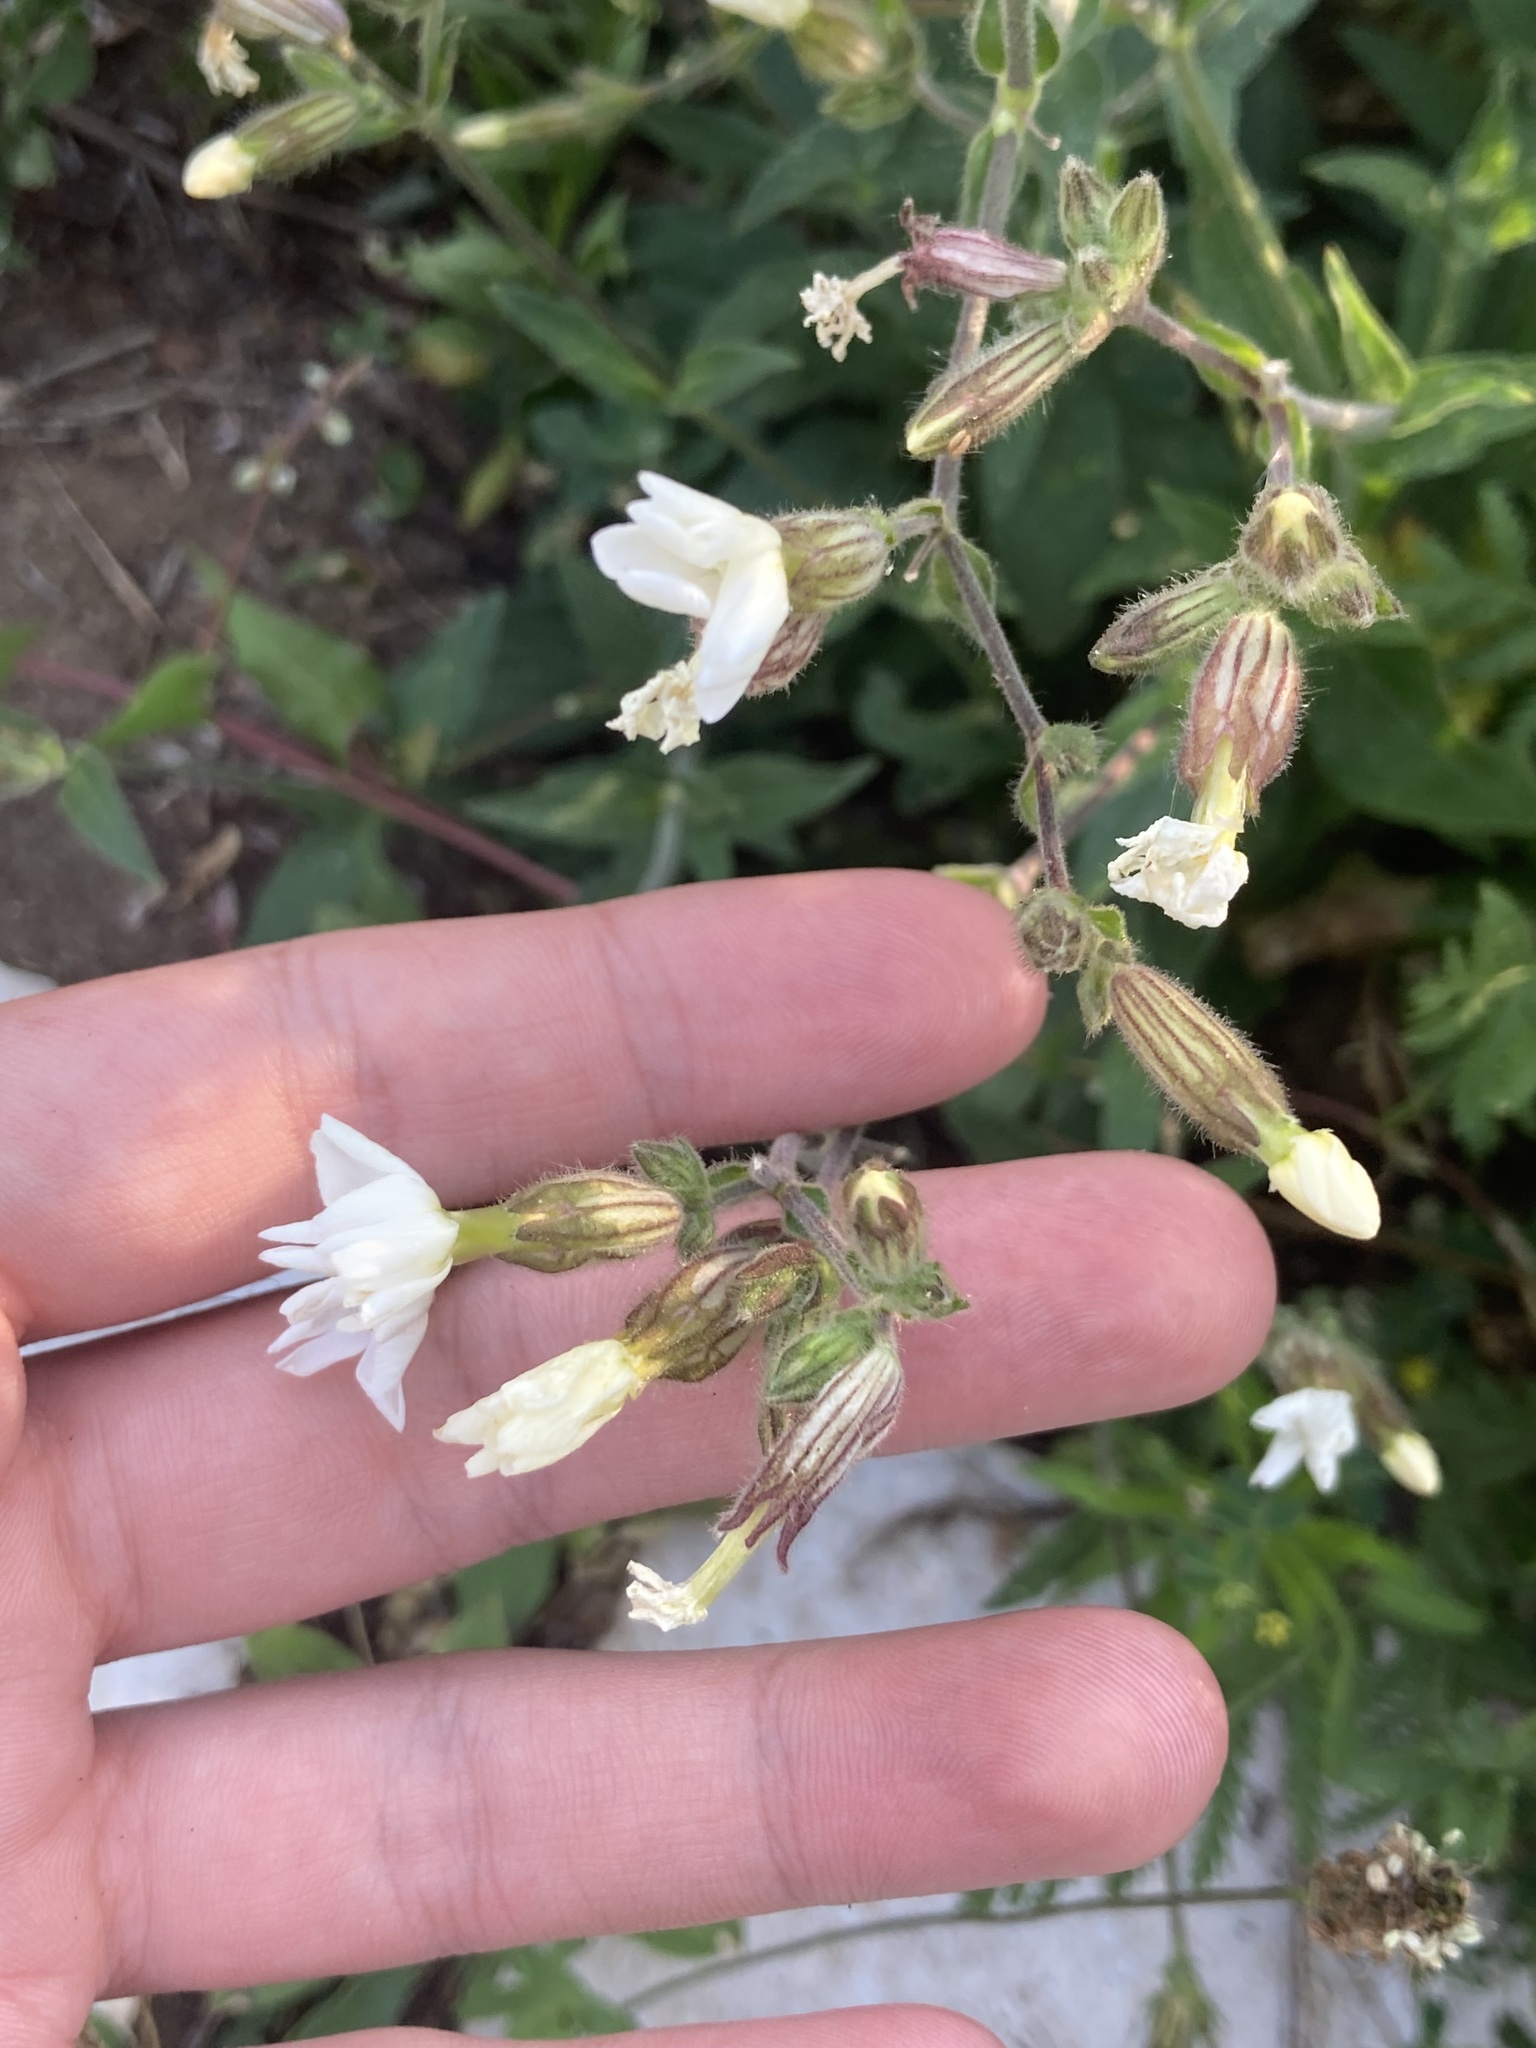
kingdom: Plantae
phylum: Tracheophyta
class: Magnoliopsida
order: Caryophyllales
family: Caryophyllaceae
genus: Silene
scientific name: Silene latifolia
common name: White campion
